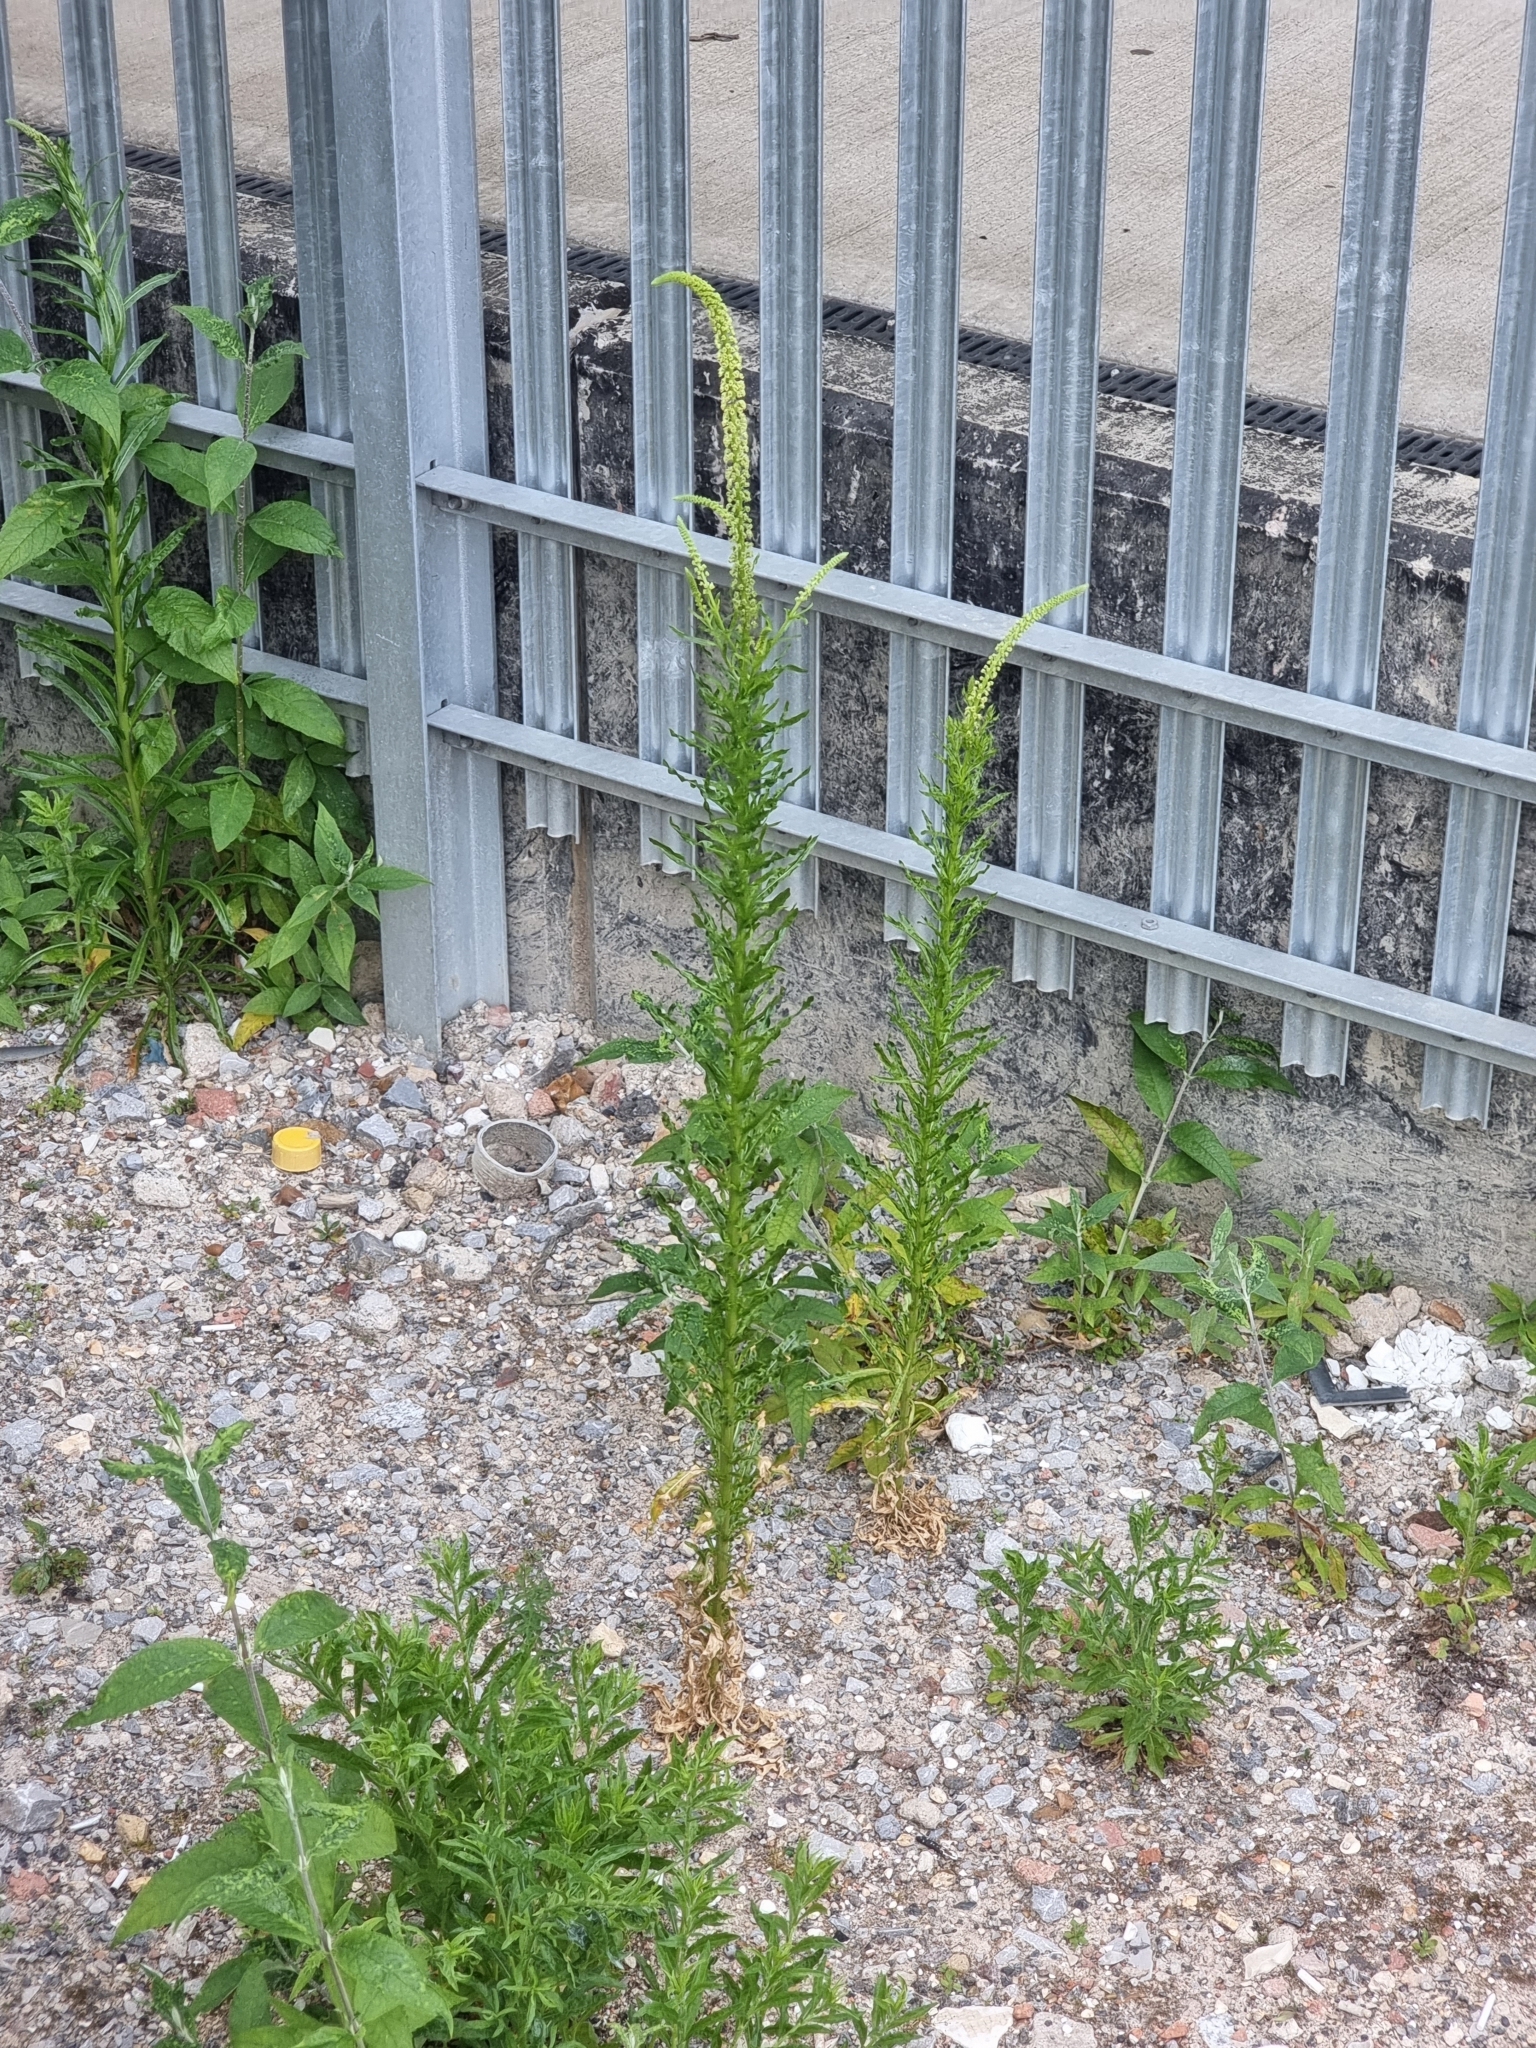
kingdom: Plantae
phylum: Tracheophyta
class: Magnoliopsida
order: Brassicales
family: Resedaceae
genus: Reseda
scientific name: Reseda luteola
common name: Weld
